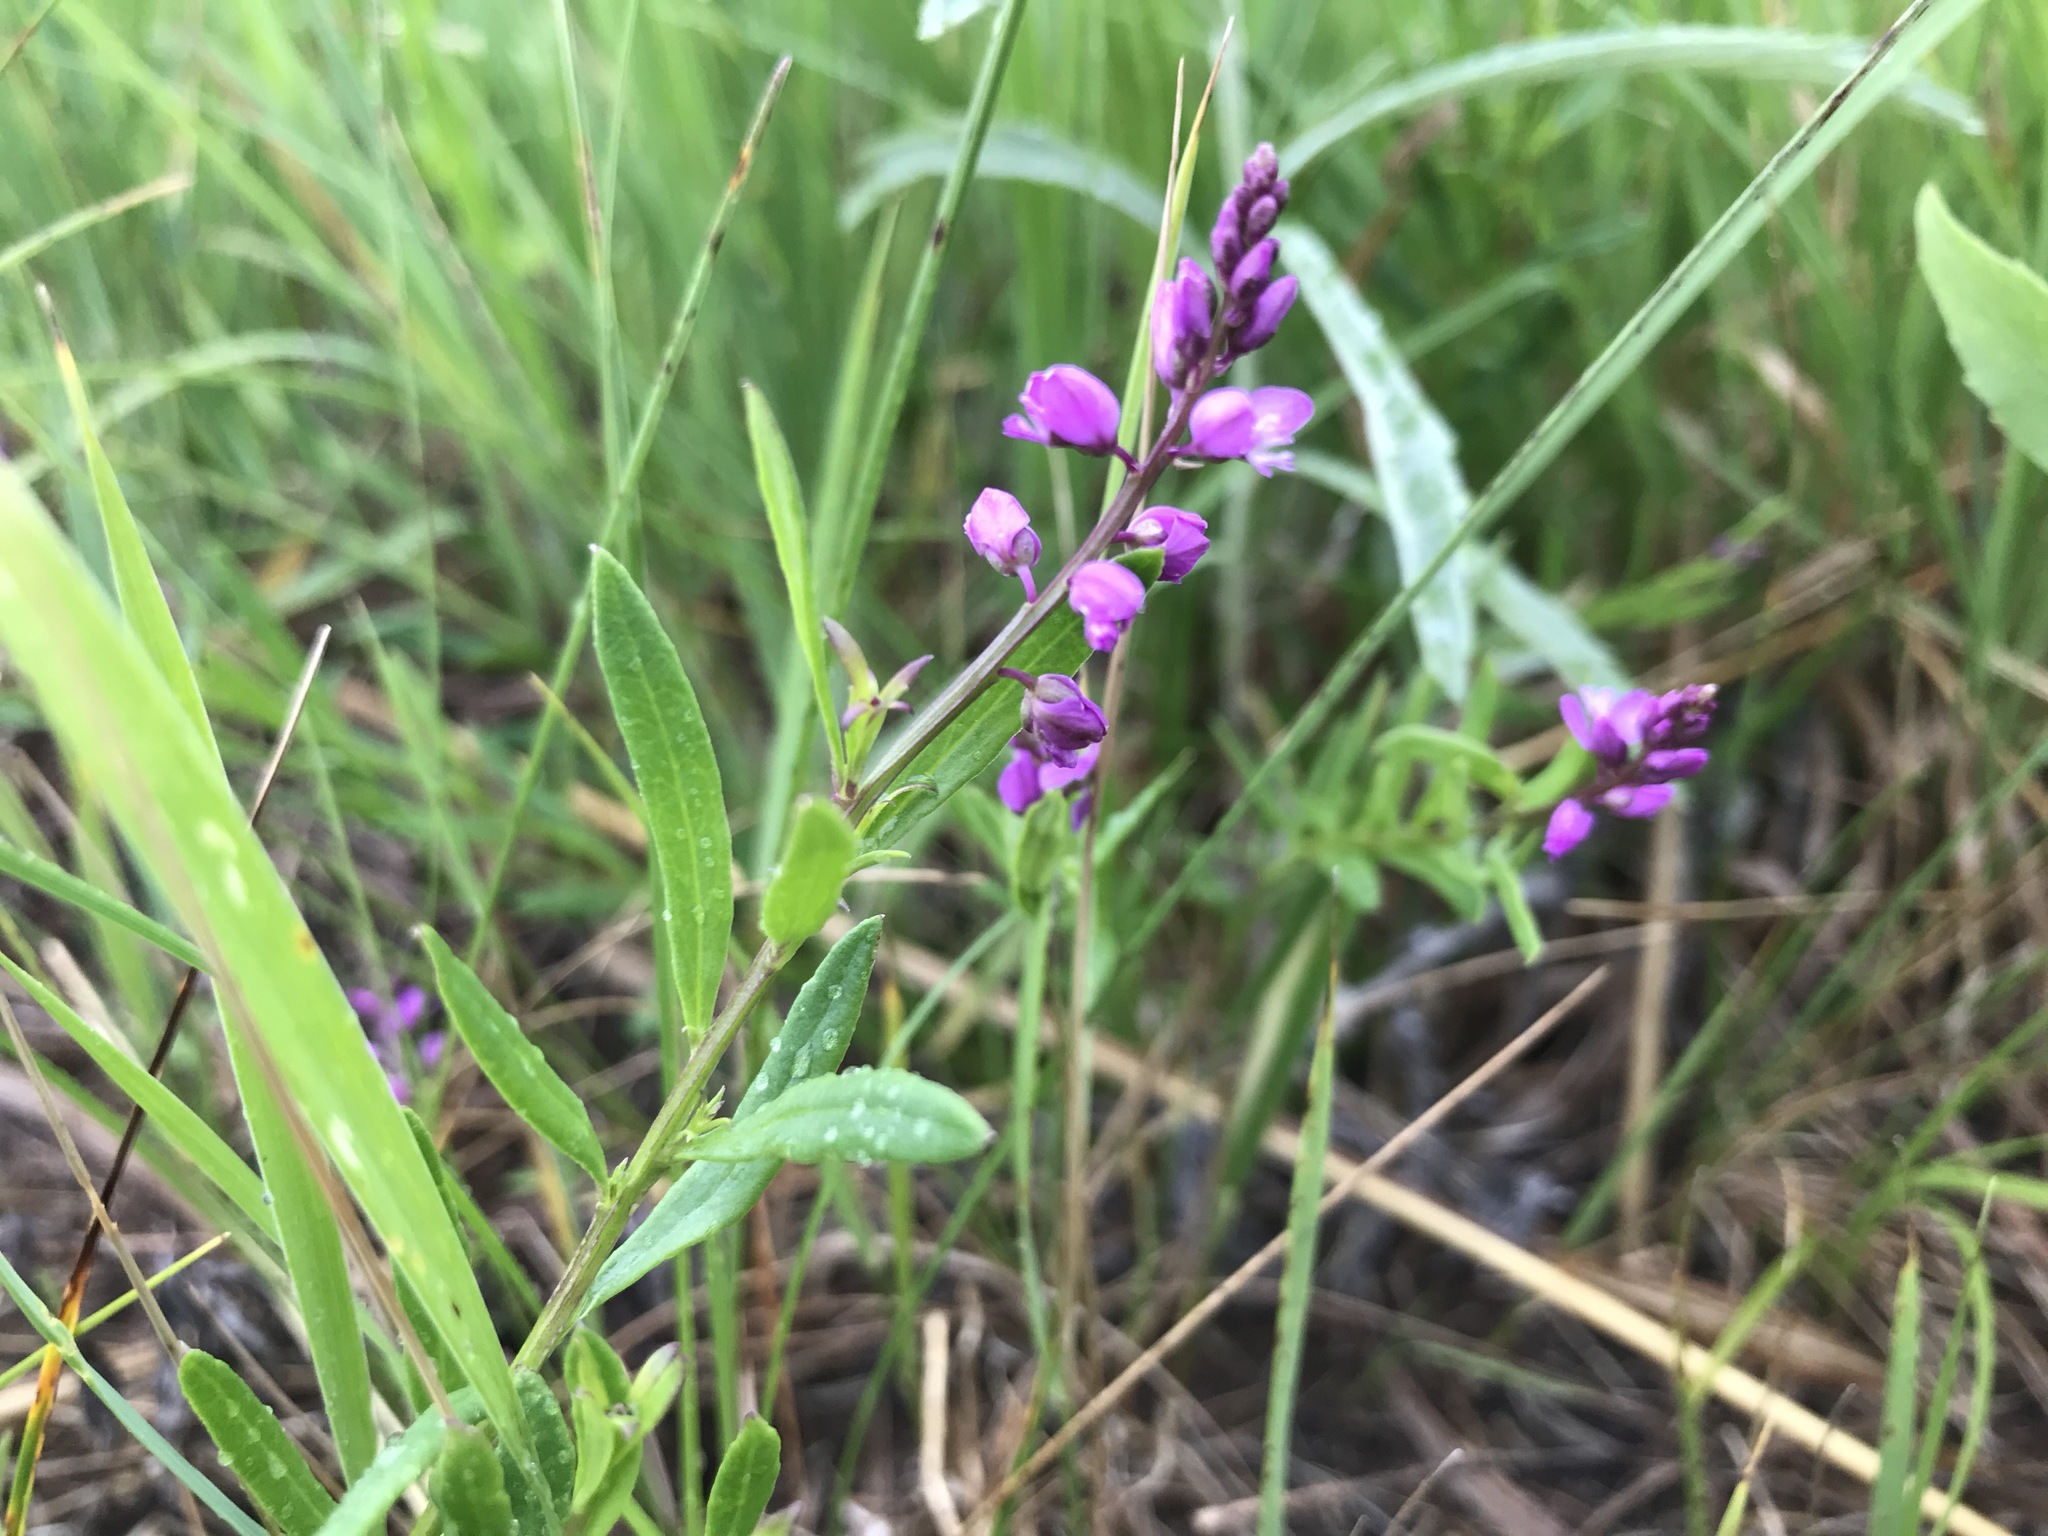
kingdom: Plantae
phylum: Tracheophyta
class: Magnoliopsida
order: Fabales
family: Polygalaceae
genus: Polygala
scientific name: Polygala polygama
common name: Bitter milkwort
